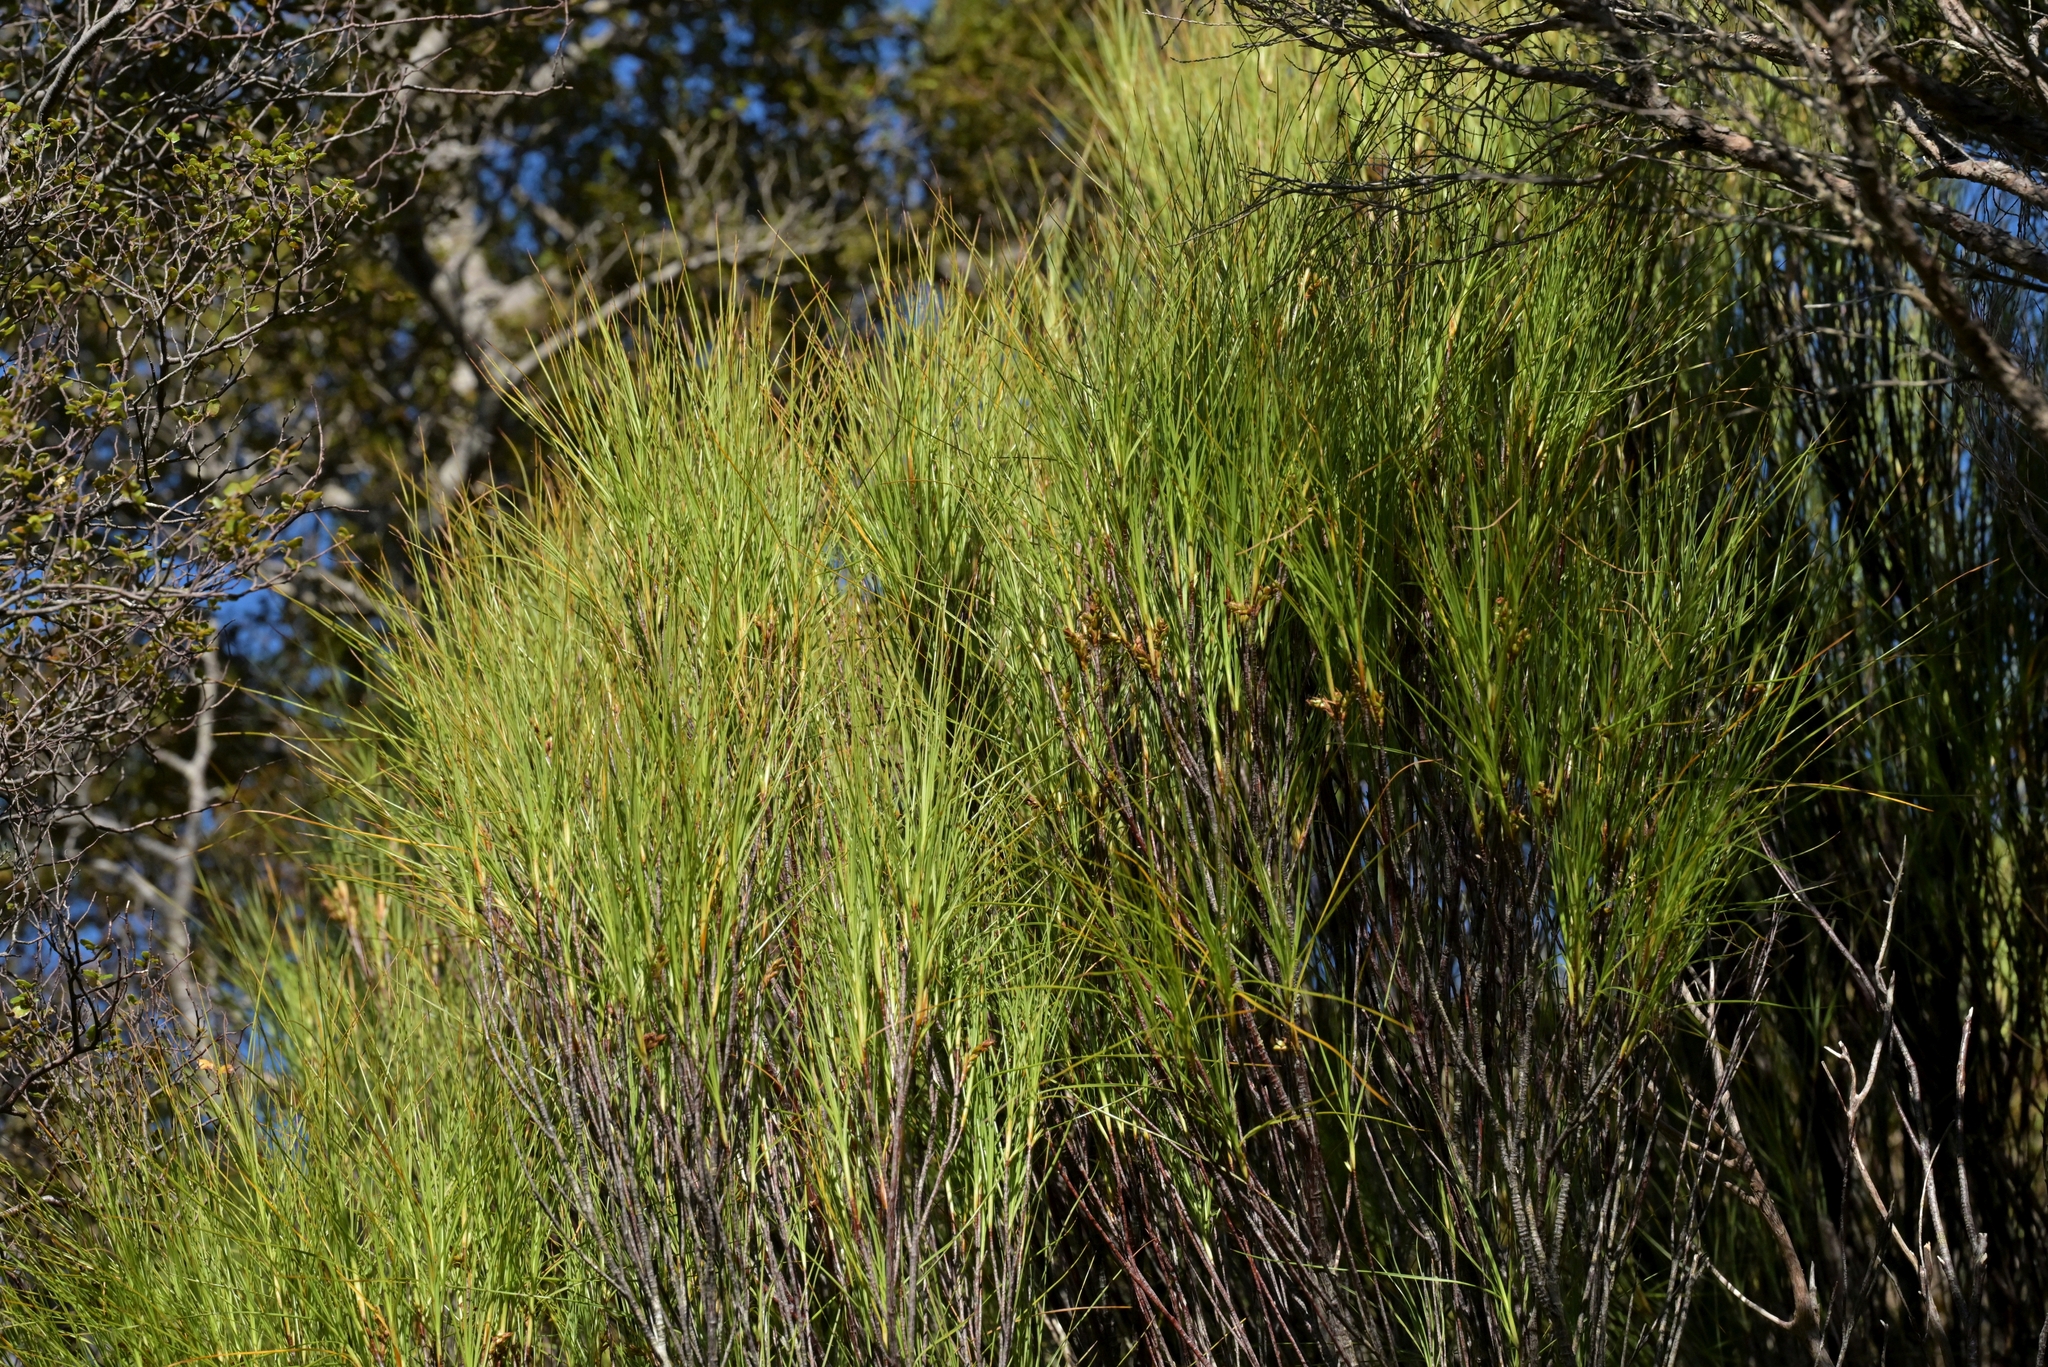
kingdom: Plantae
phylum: Tracheophyta
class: Magnoliopsida
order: Ericales
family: Ericaceae
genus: Dracophyllum
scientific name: Dracophyllum filifolium
